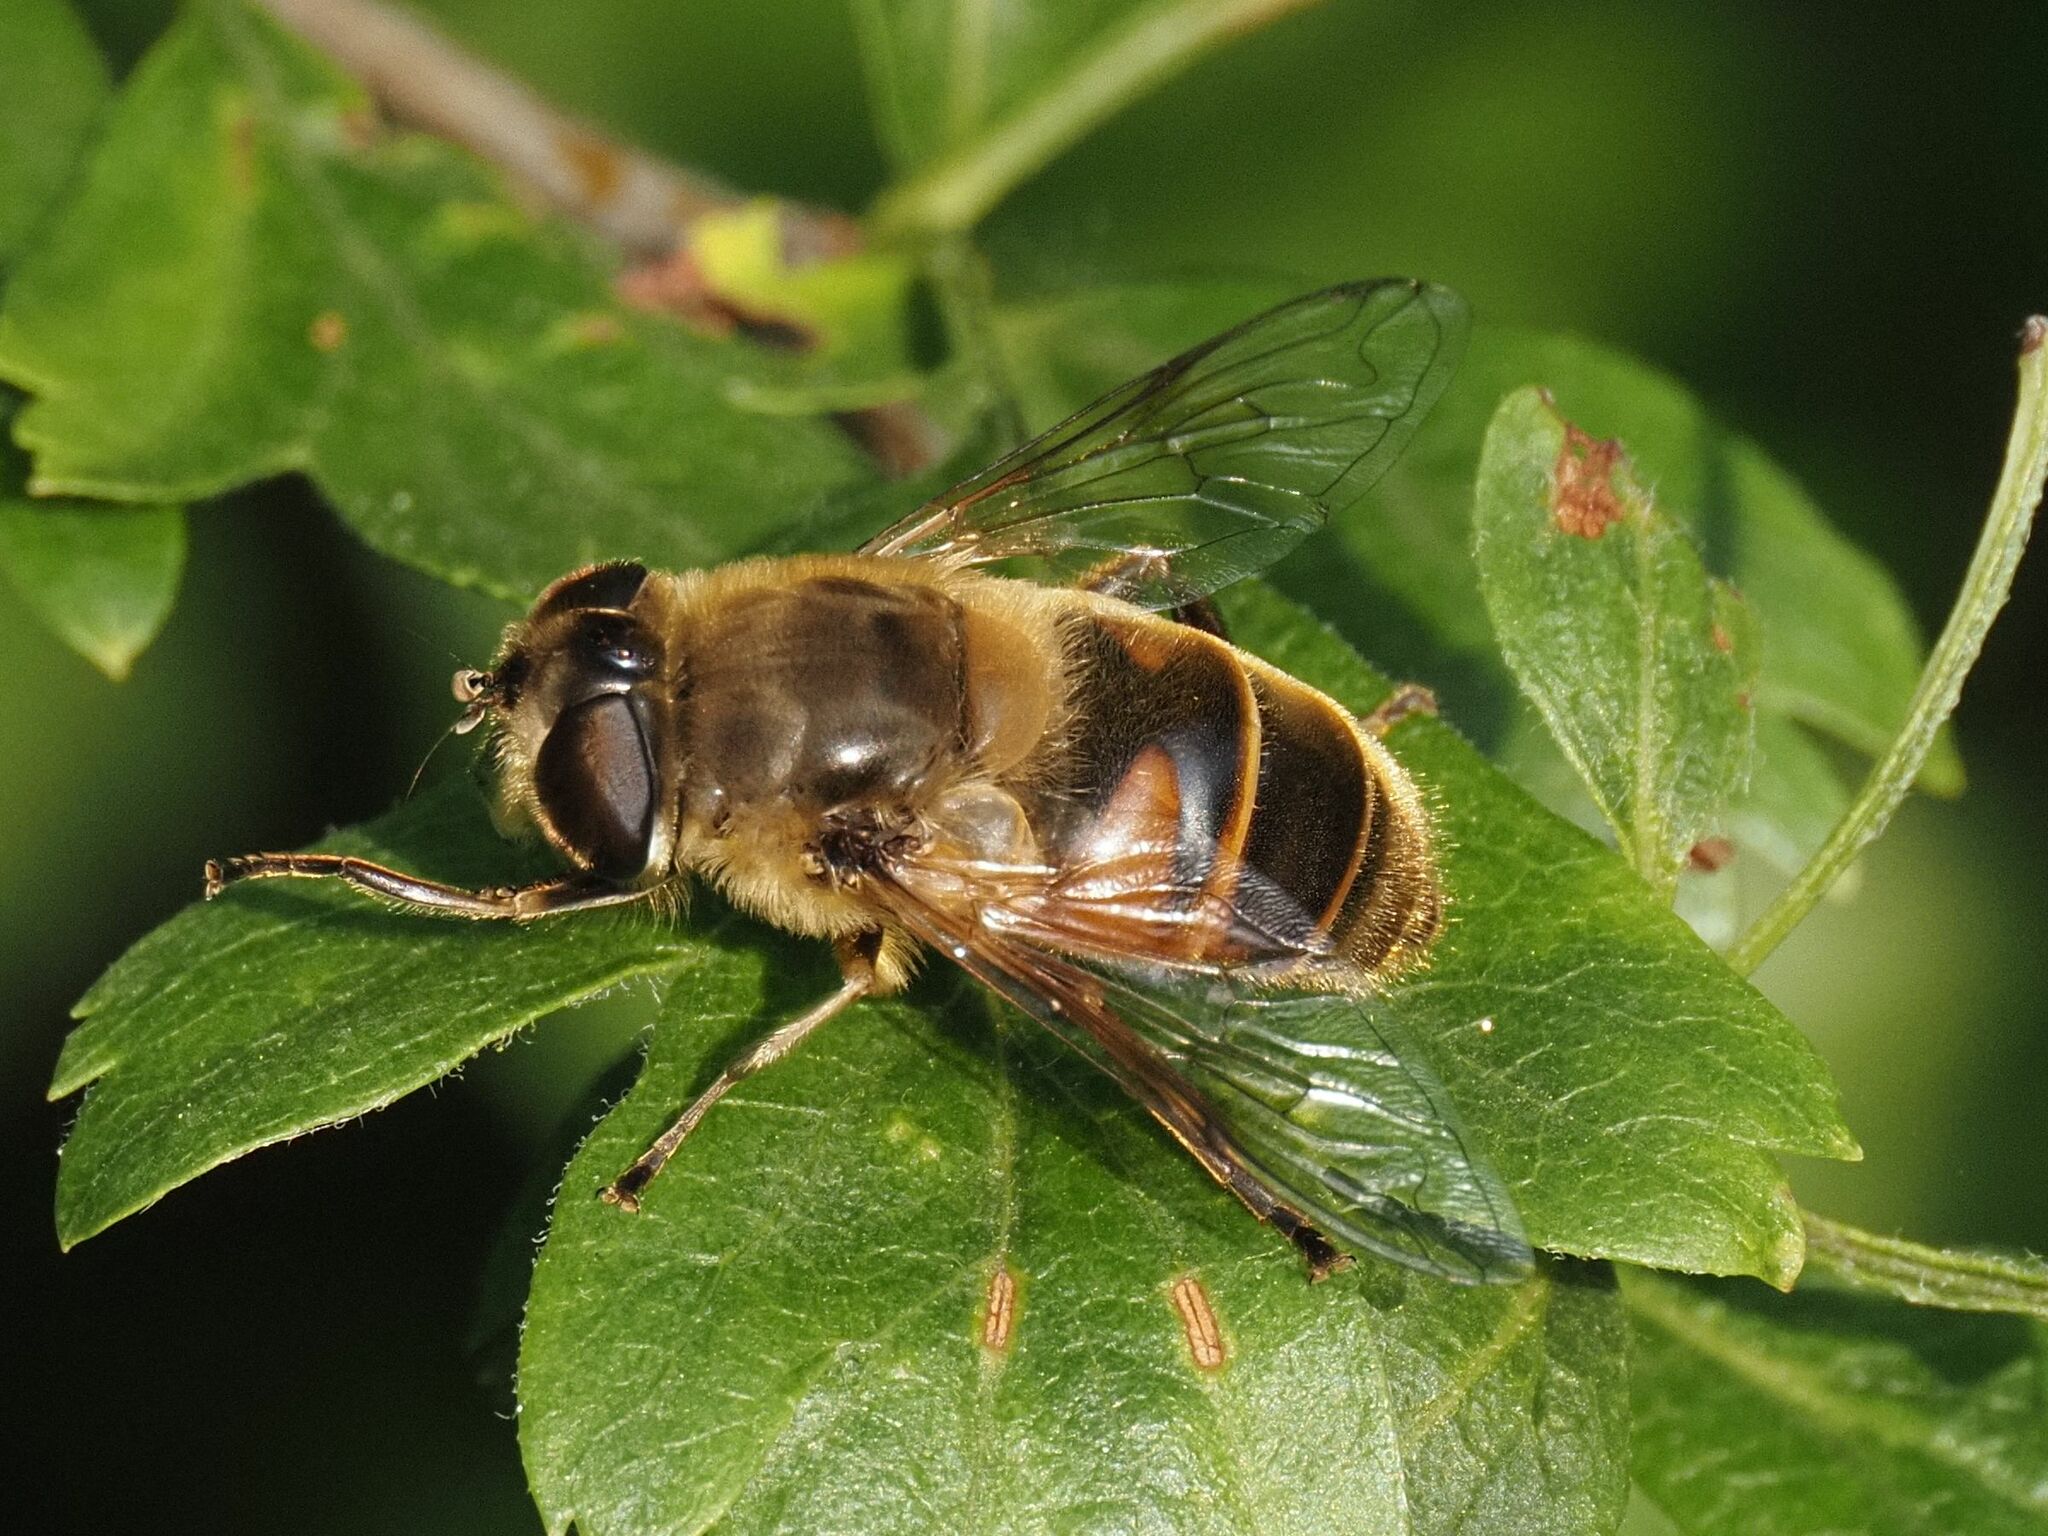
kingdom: Animalia
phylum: Arthropoda
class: Insecta
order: Diptera
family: Syrphidae
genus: Eristalis
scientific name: Eristalis tenax
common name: Drone fly
